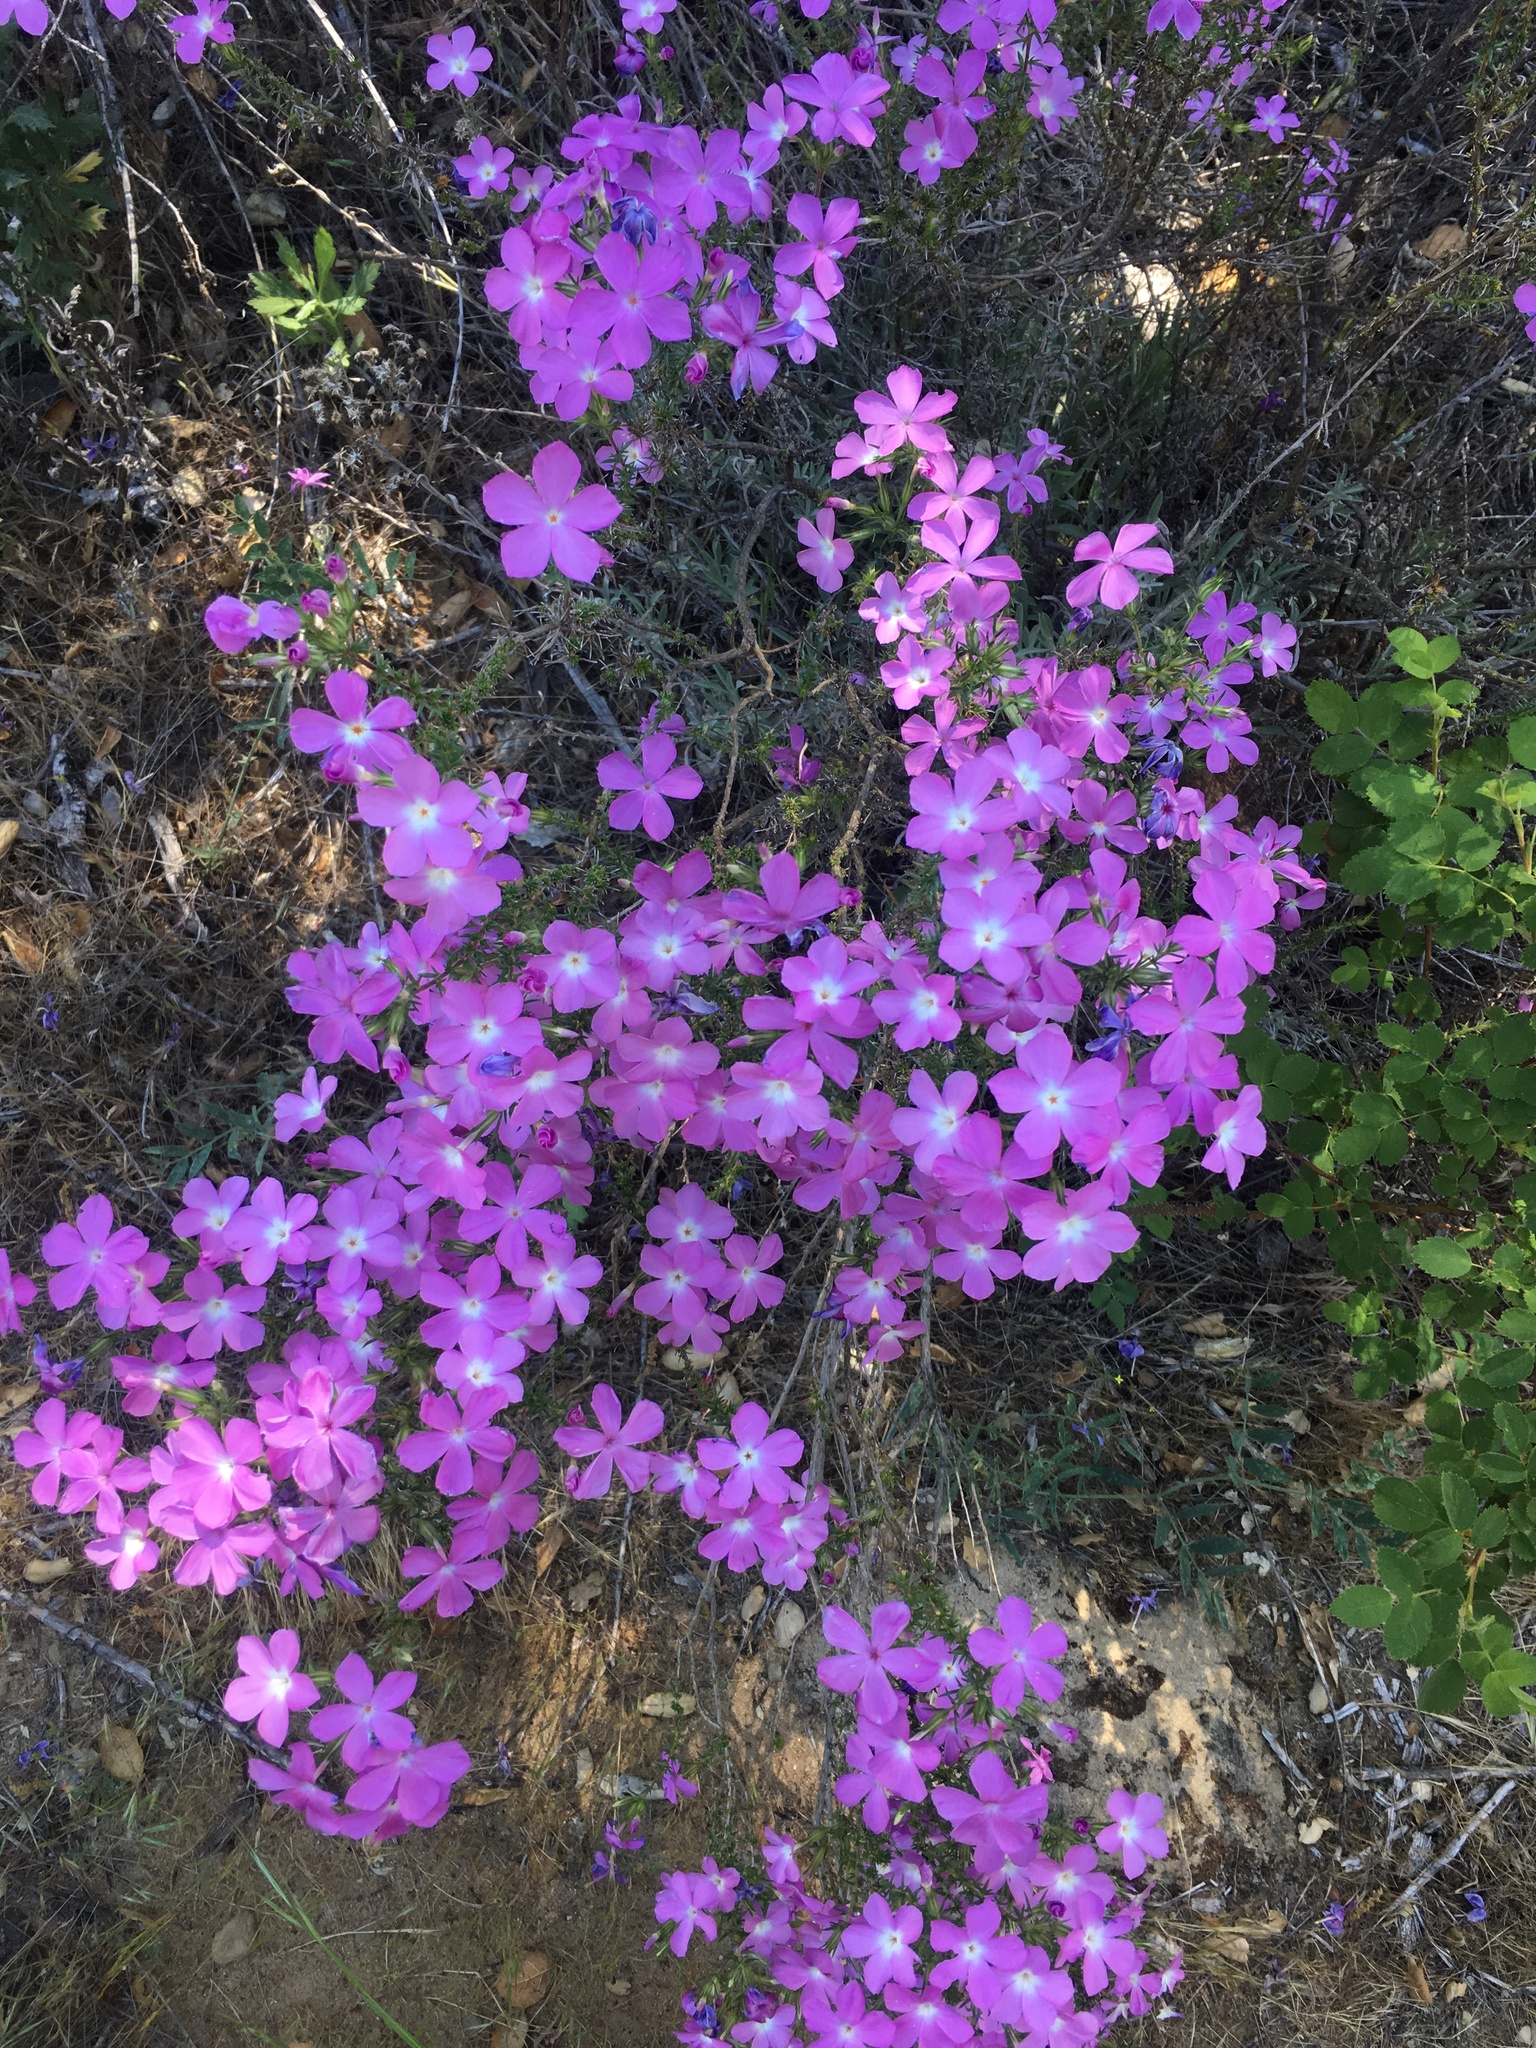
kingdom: Plantae
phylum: Tracheophyta
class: Magnoliopsida
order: Ericales
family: Polemoniaceae
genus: Linanthus
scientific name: Linanthus californicus
